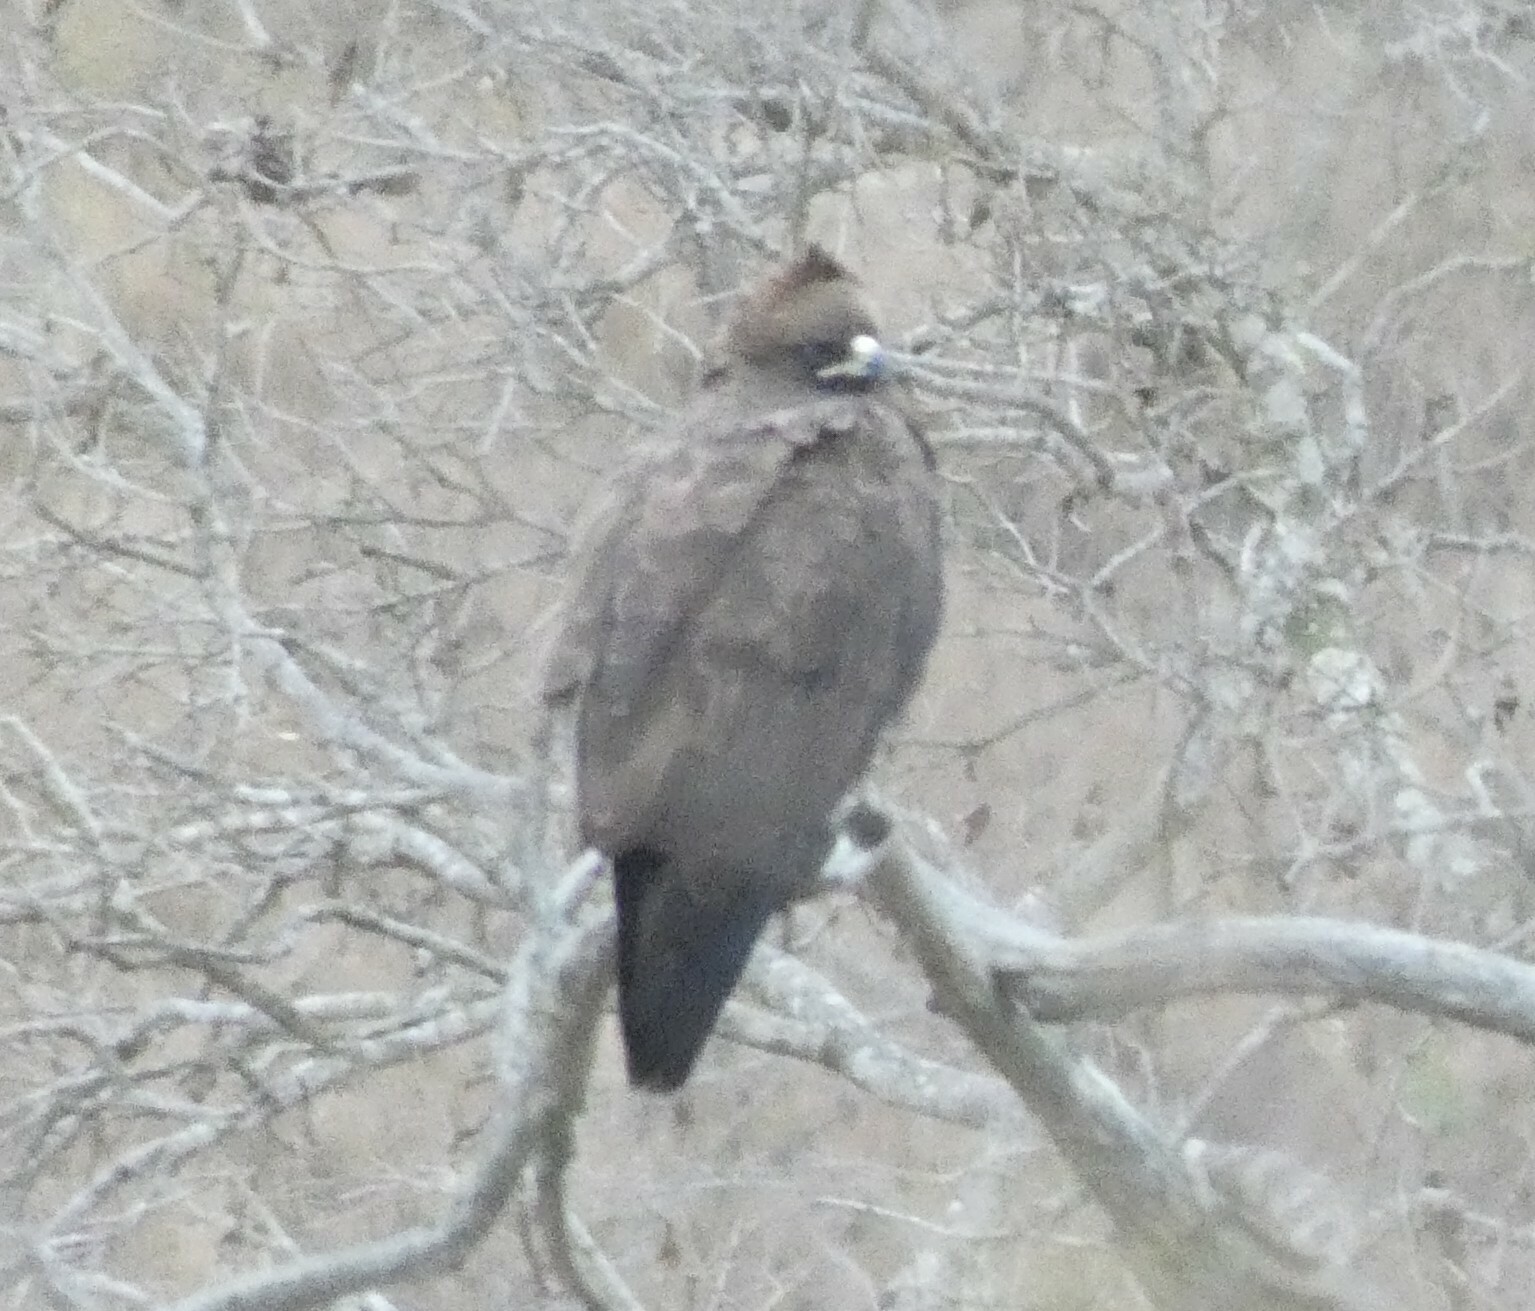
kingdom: Animalia
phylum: Chordata
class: Aves
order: Accipitriformes
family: Accipitridae
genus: Hieraaetus
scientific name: Hieraaetus wahlbergi
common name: Wahlberg's eagle
